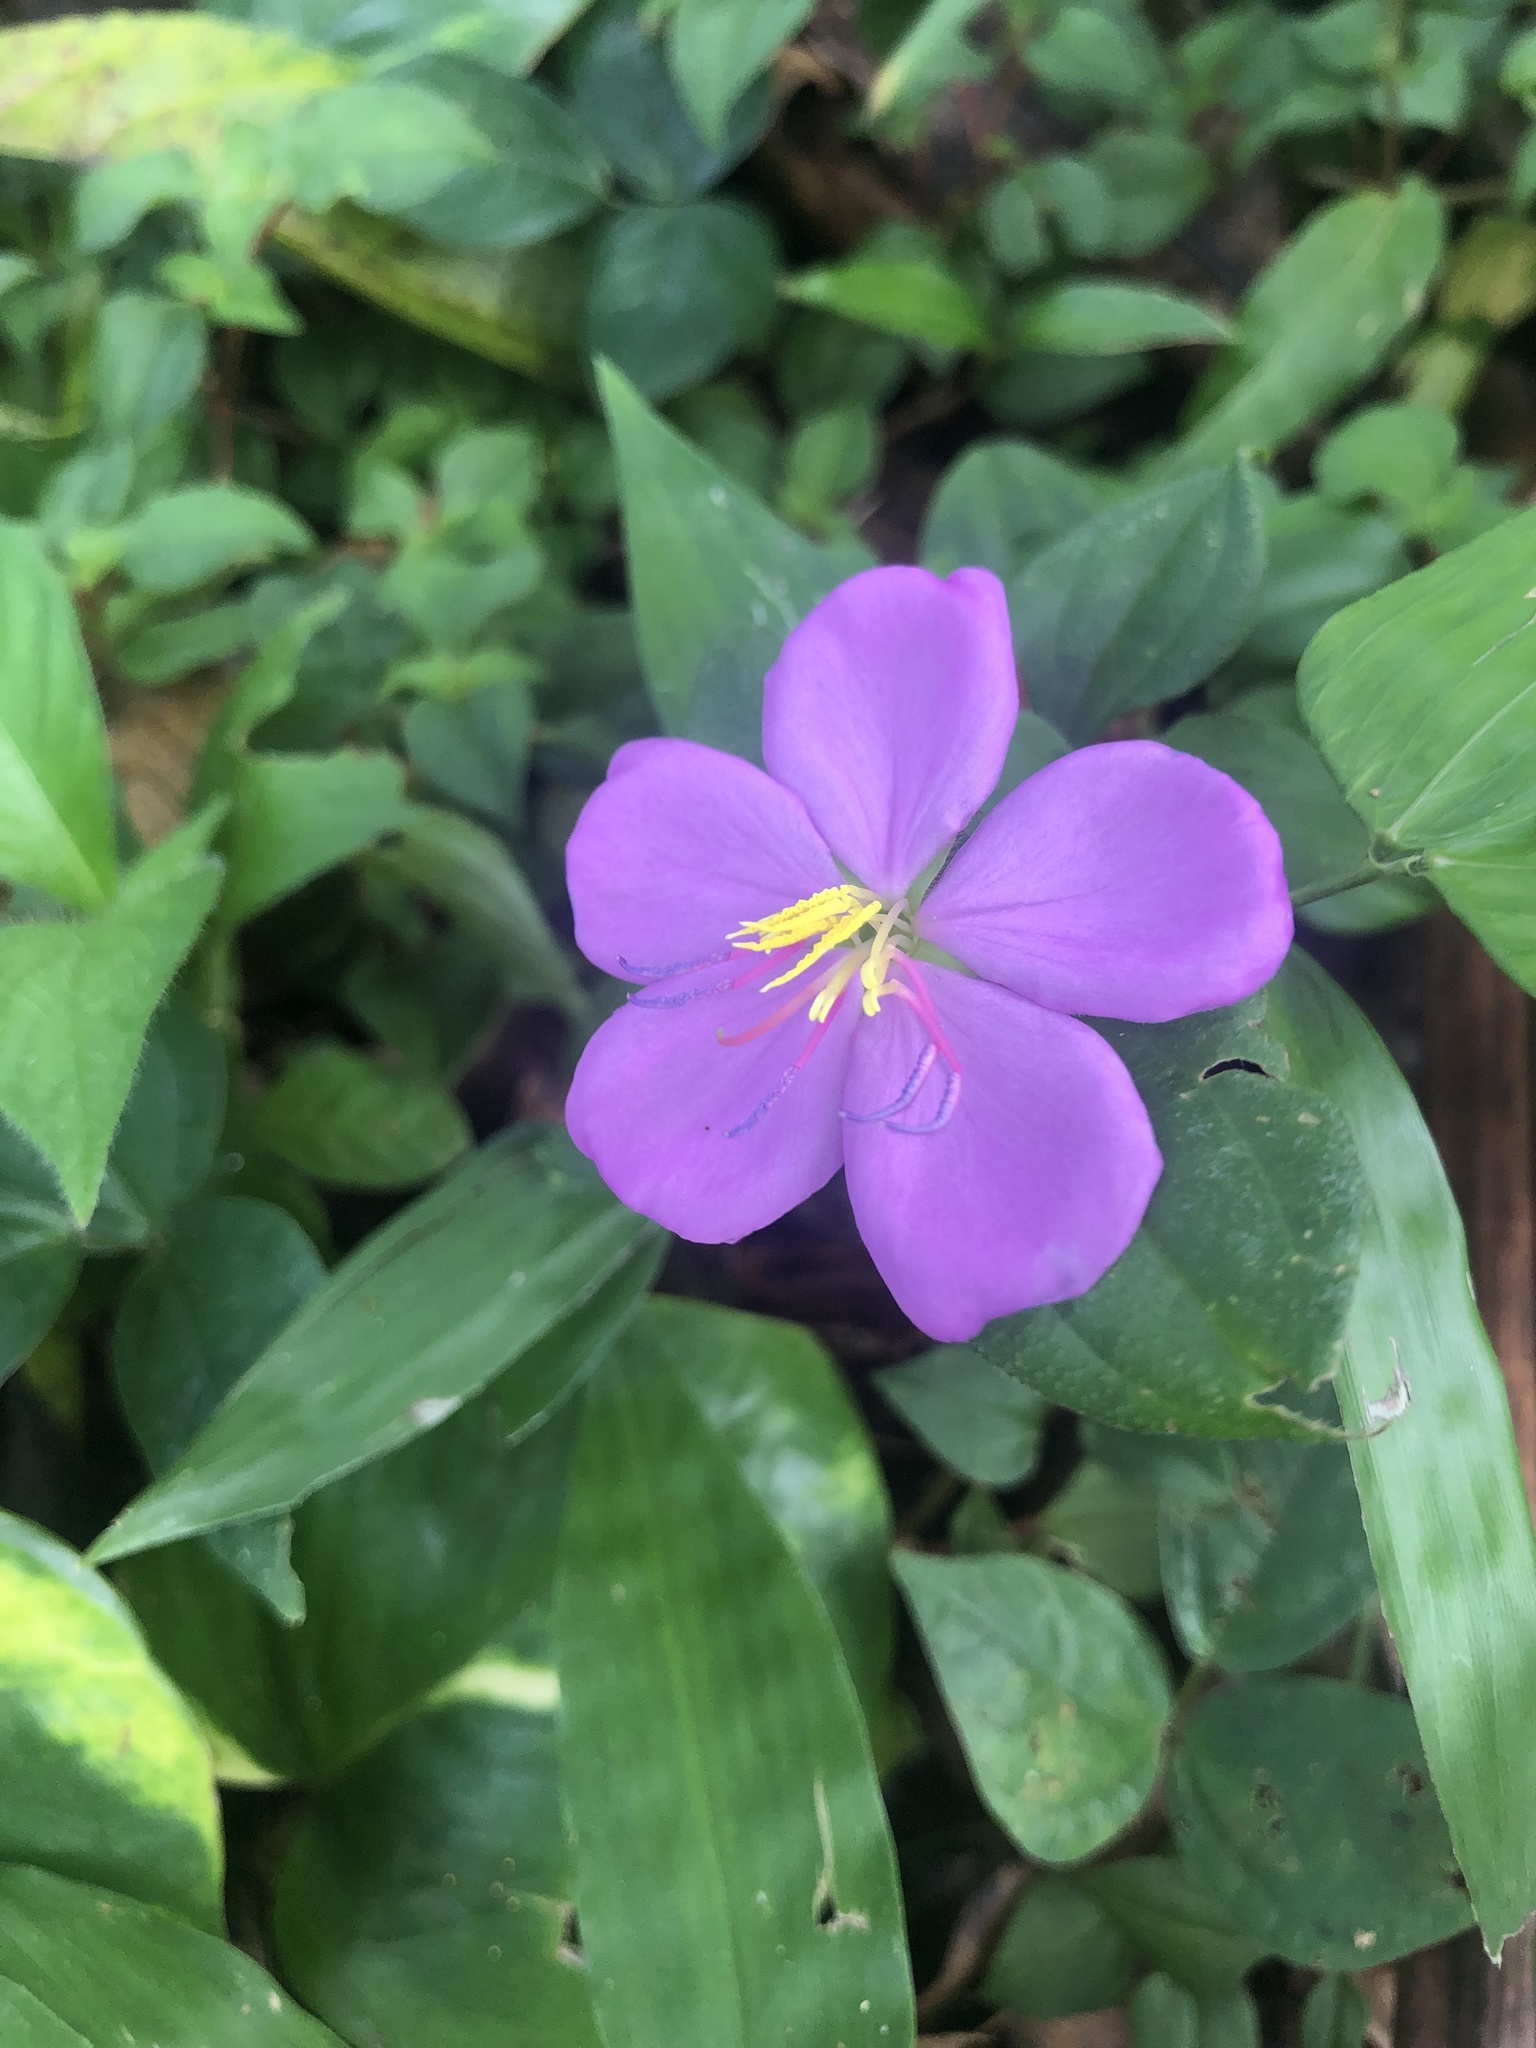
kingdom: Plantae
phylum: Tracheophyta
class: Magnoliopsida
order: Myrtales
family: Melastomataceae
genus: Heterotis
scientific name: Heterotis rotundifolia
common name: Pinklady
